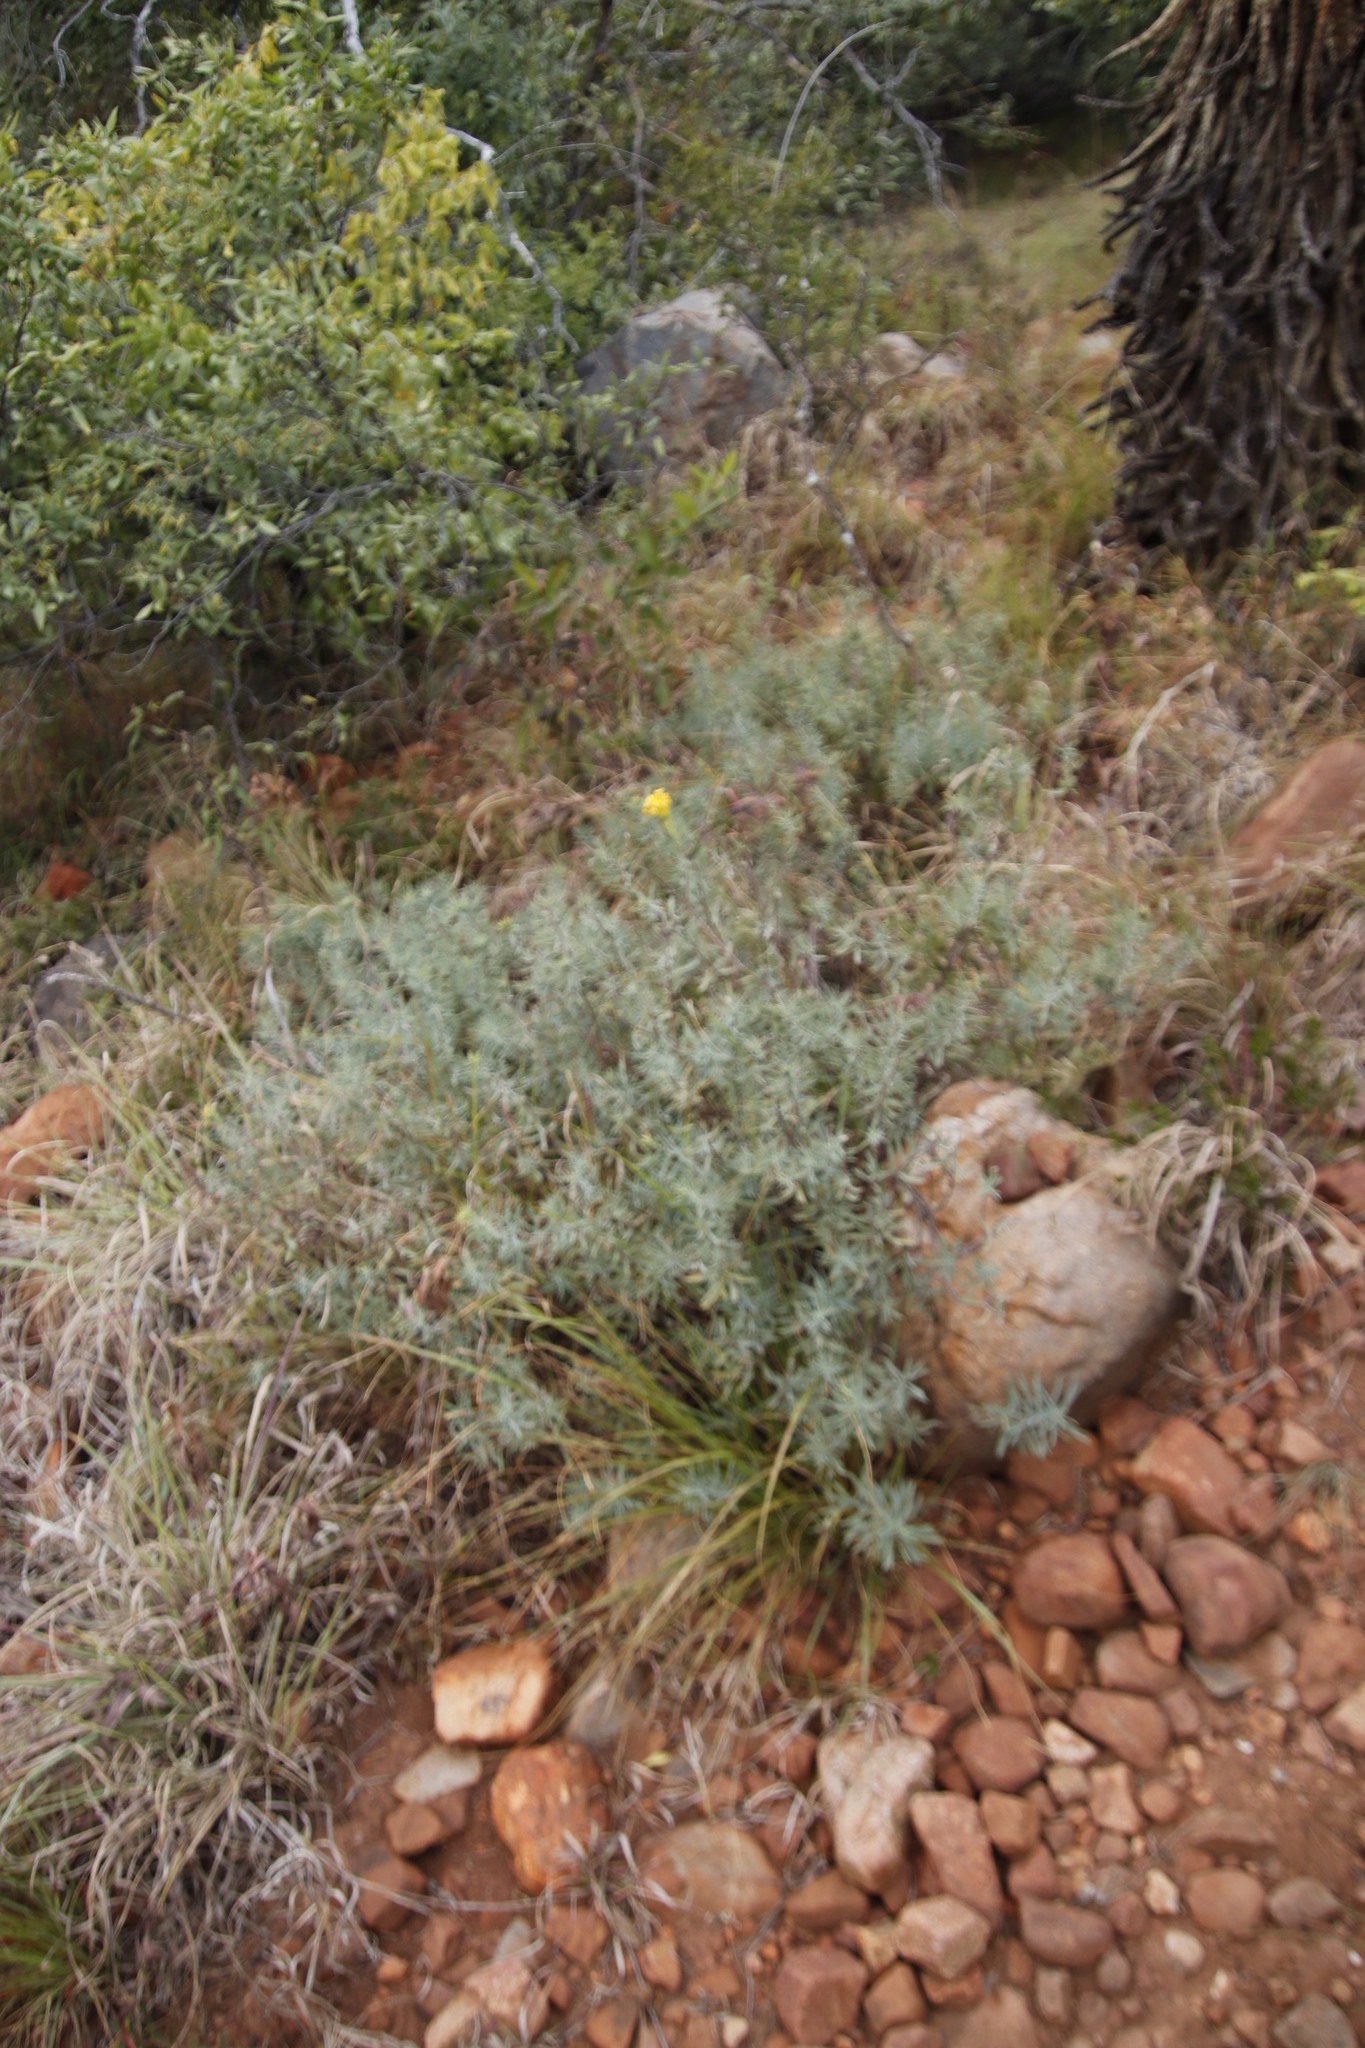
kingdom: Plantae
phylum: Tracheophyta
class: Magnoliopsida
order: Malvales
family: Thymelaeaceae
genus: Gnidia
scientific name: Gnidia capitata
